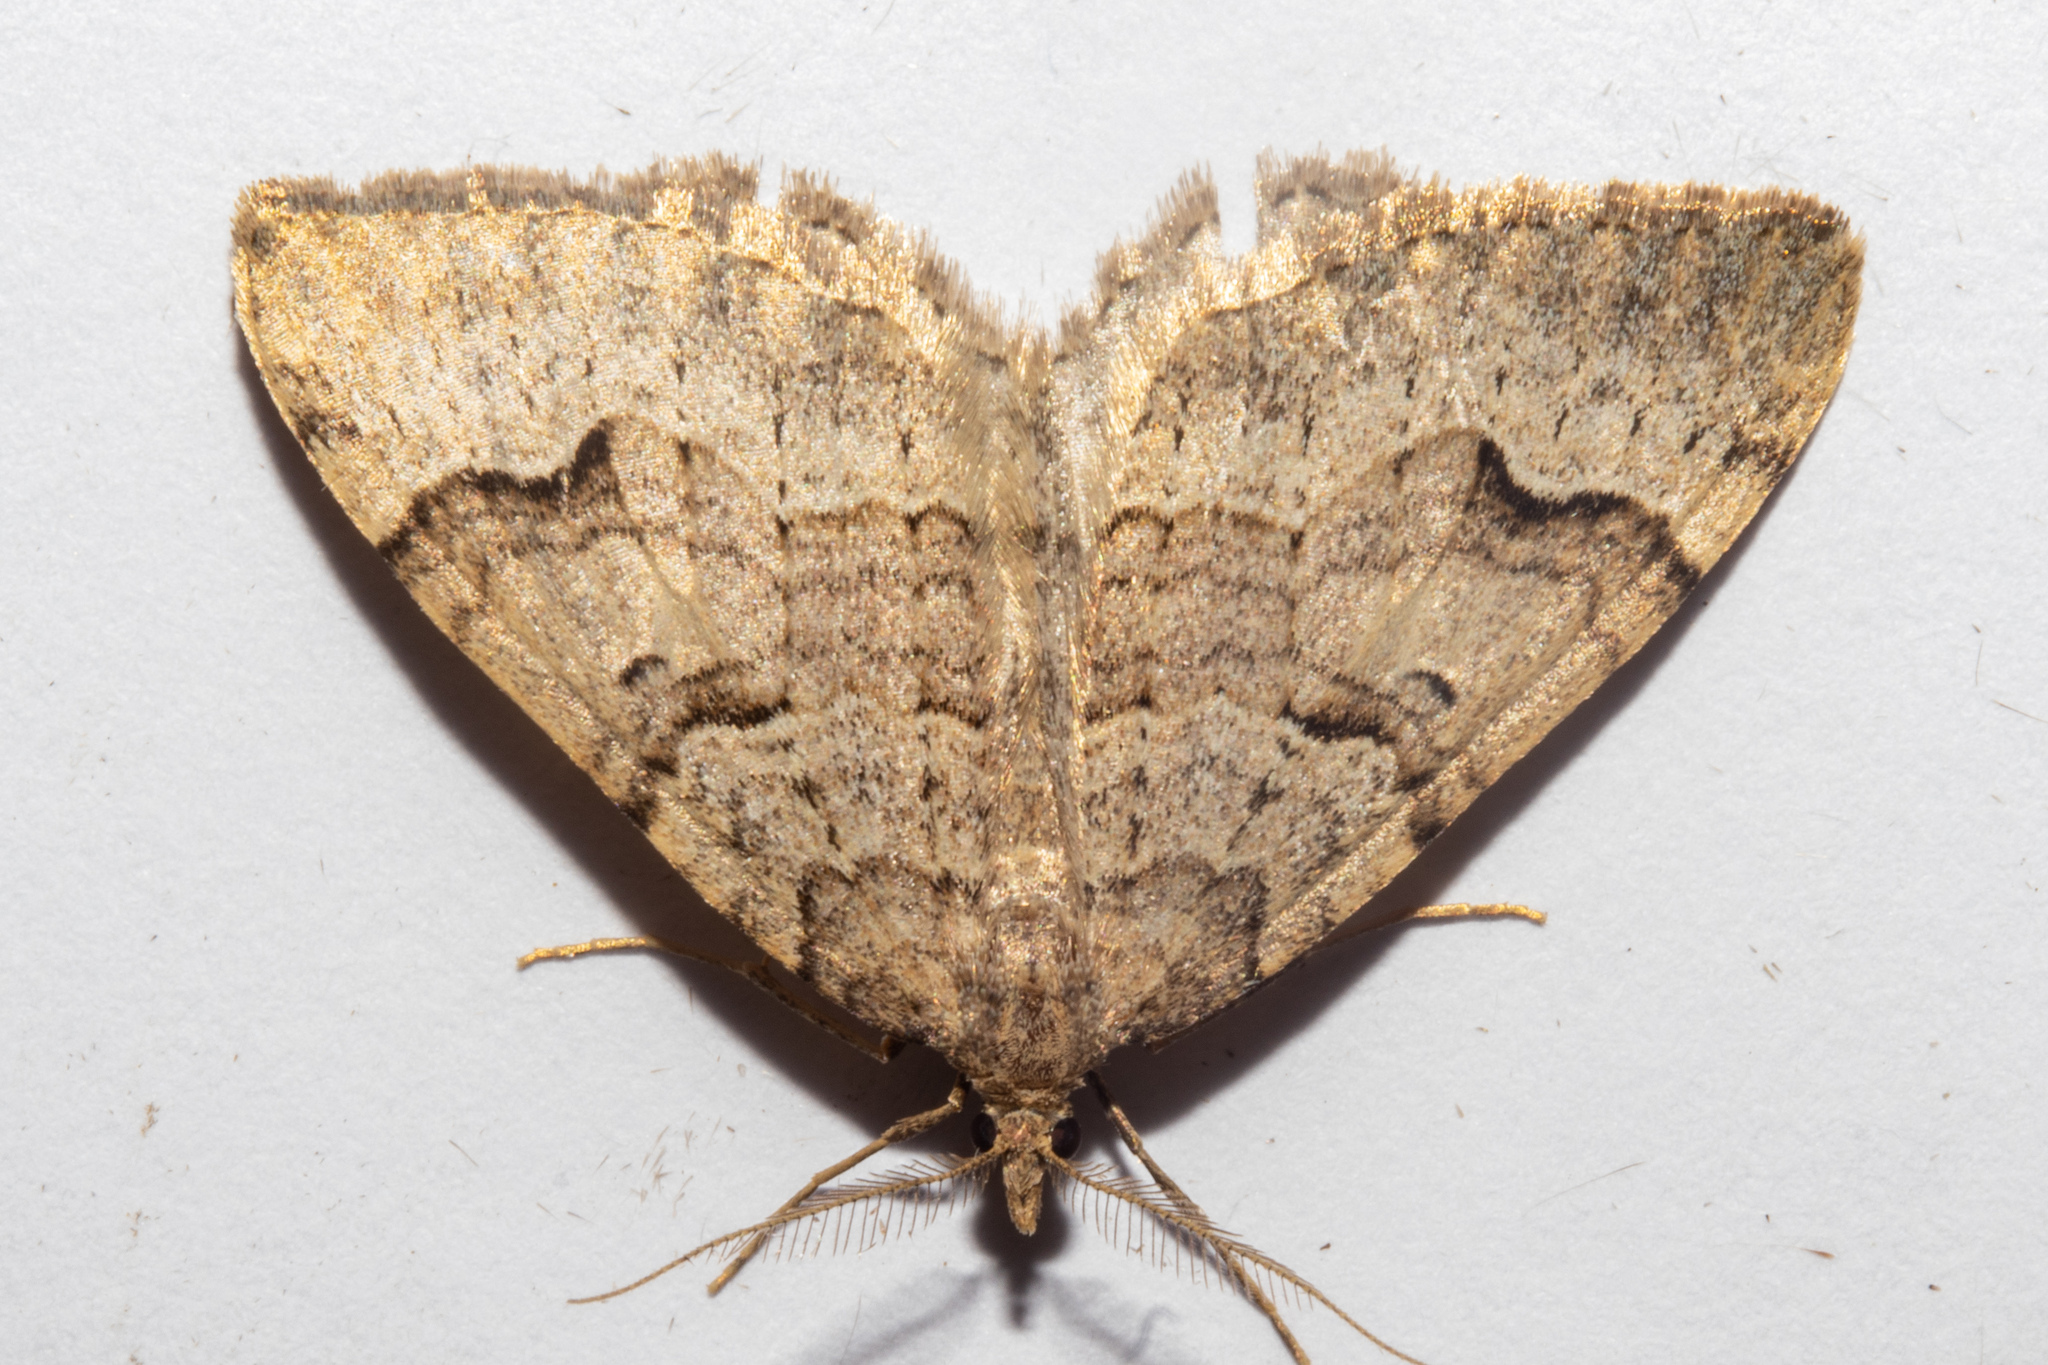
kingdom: Animalia
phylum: Arthropoda
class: Insecta
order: Lepidoptera
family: Geometridae
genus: Epyaxa
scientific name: Epyaxa rosearia
